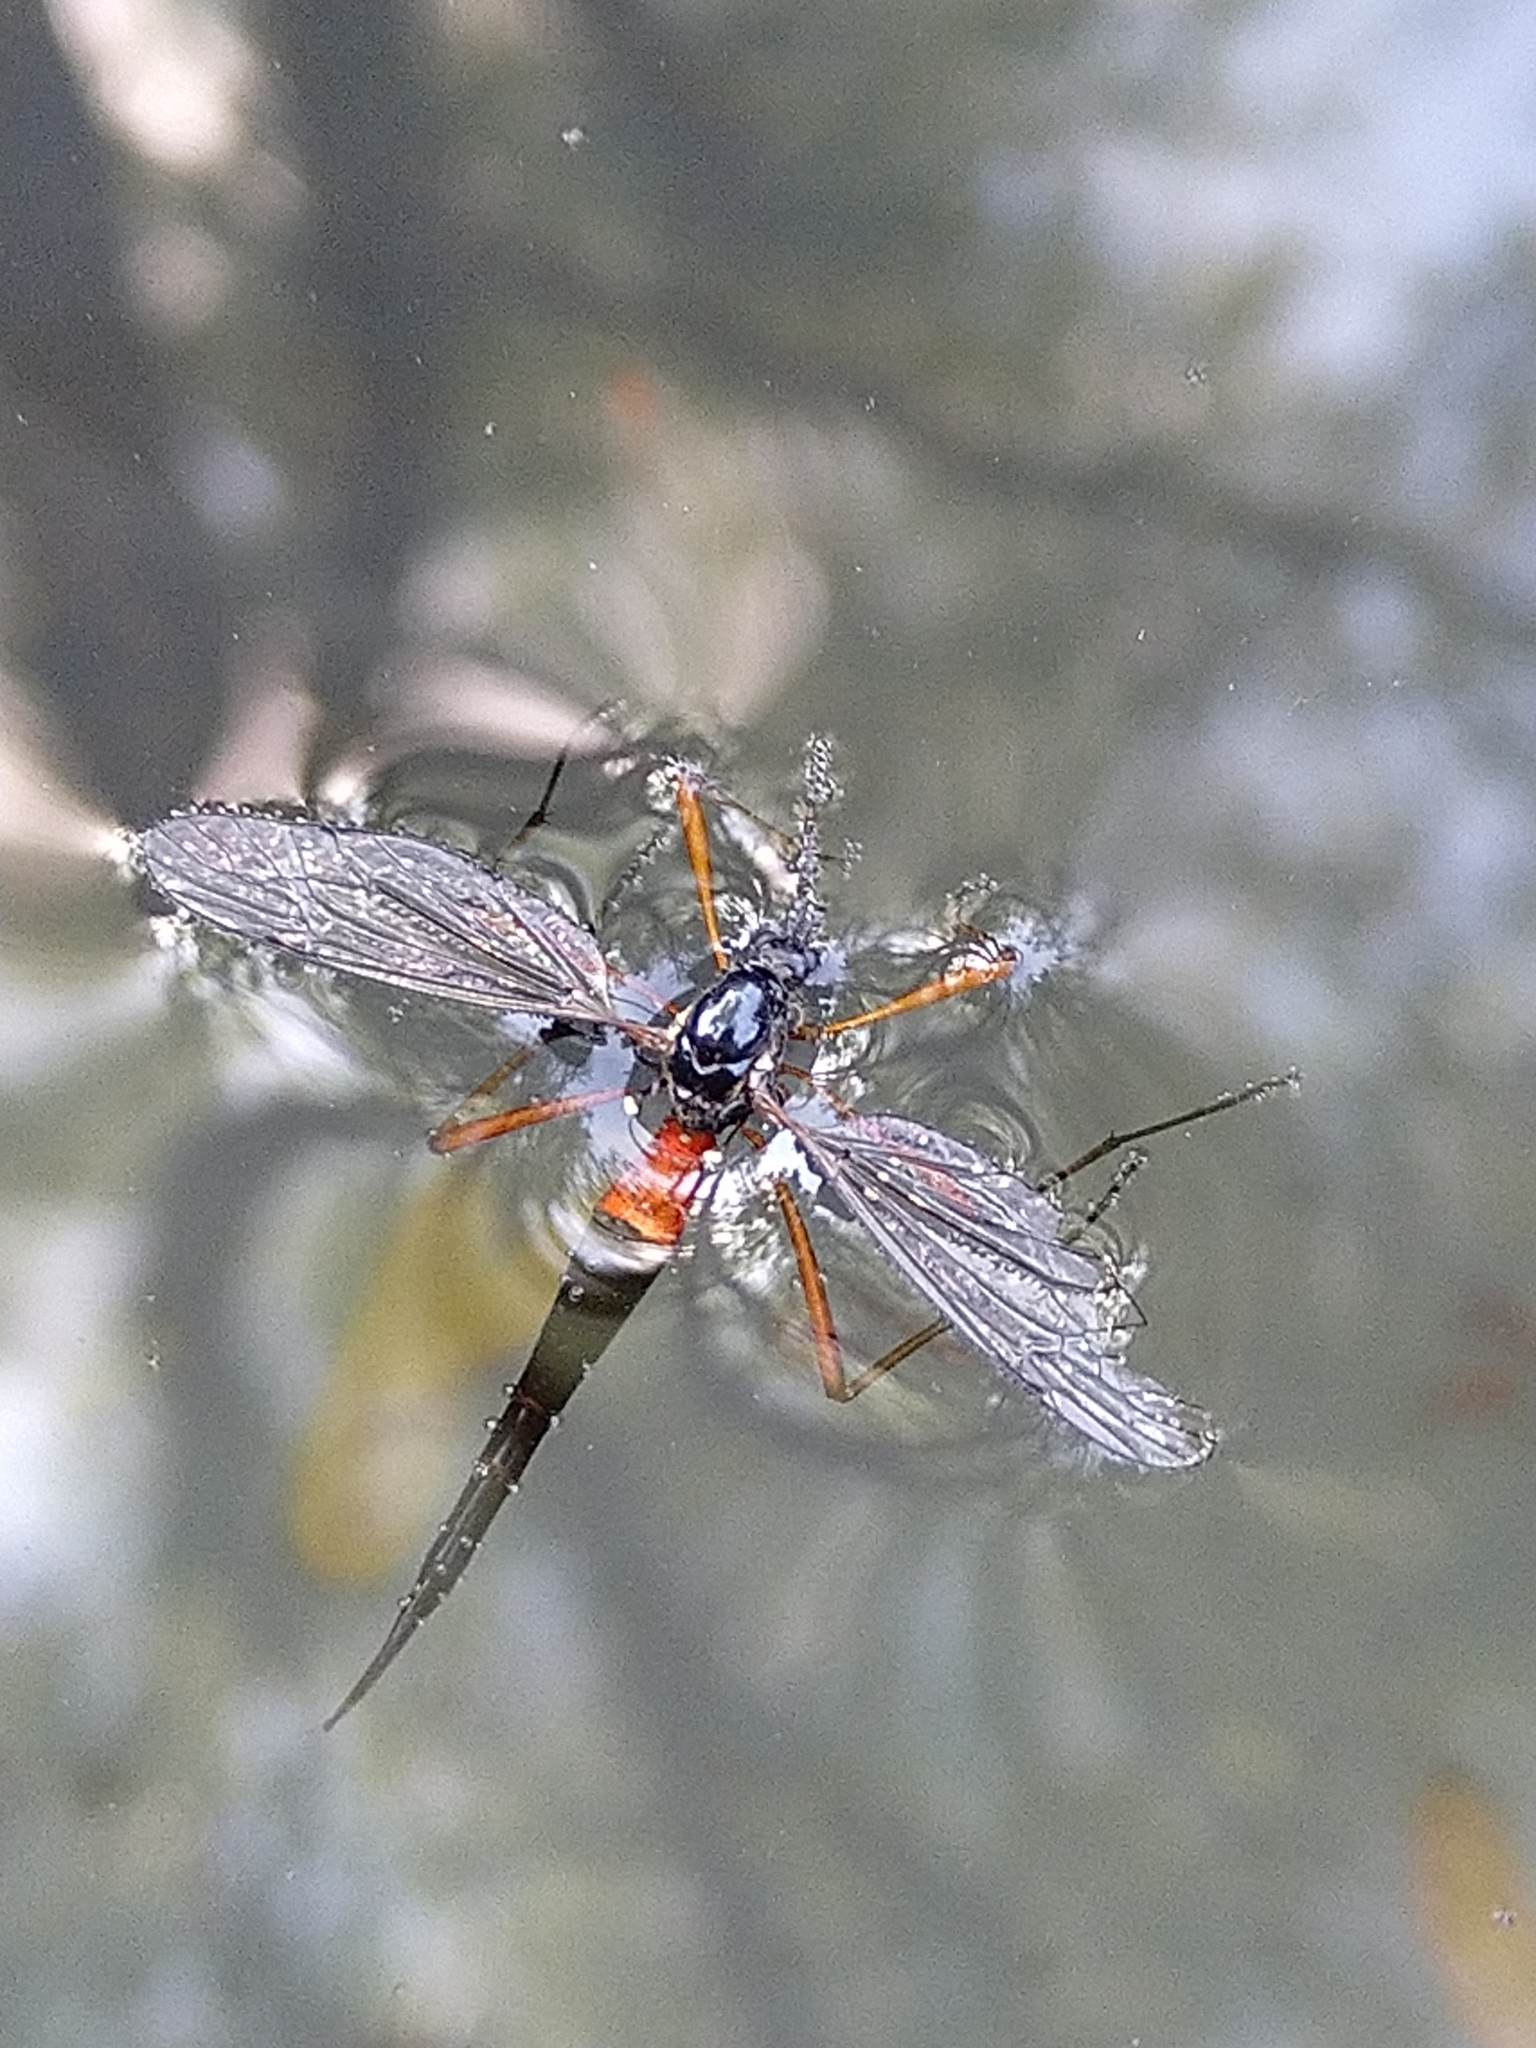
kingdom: Animalia
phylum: Arthropoda
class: Insecta
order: Diptera
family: Tipulidae
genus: Tanyptera
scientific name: Tanyptera atrata
